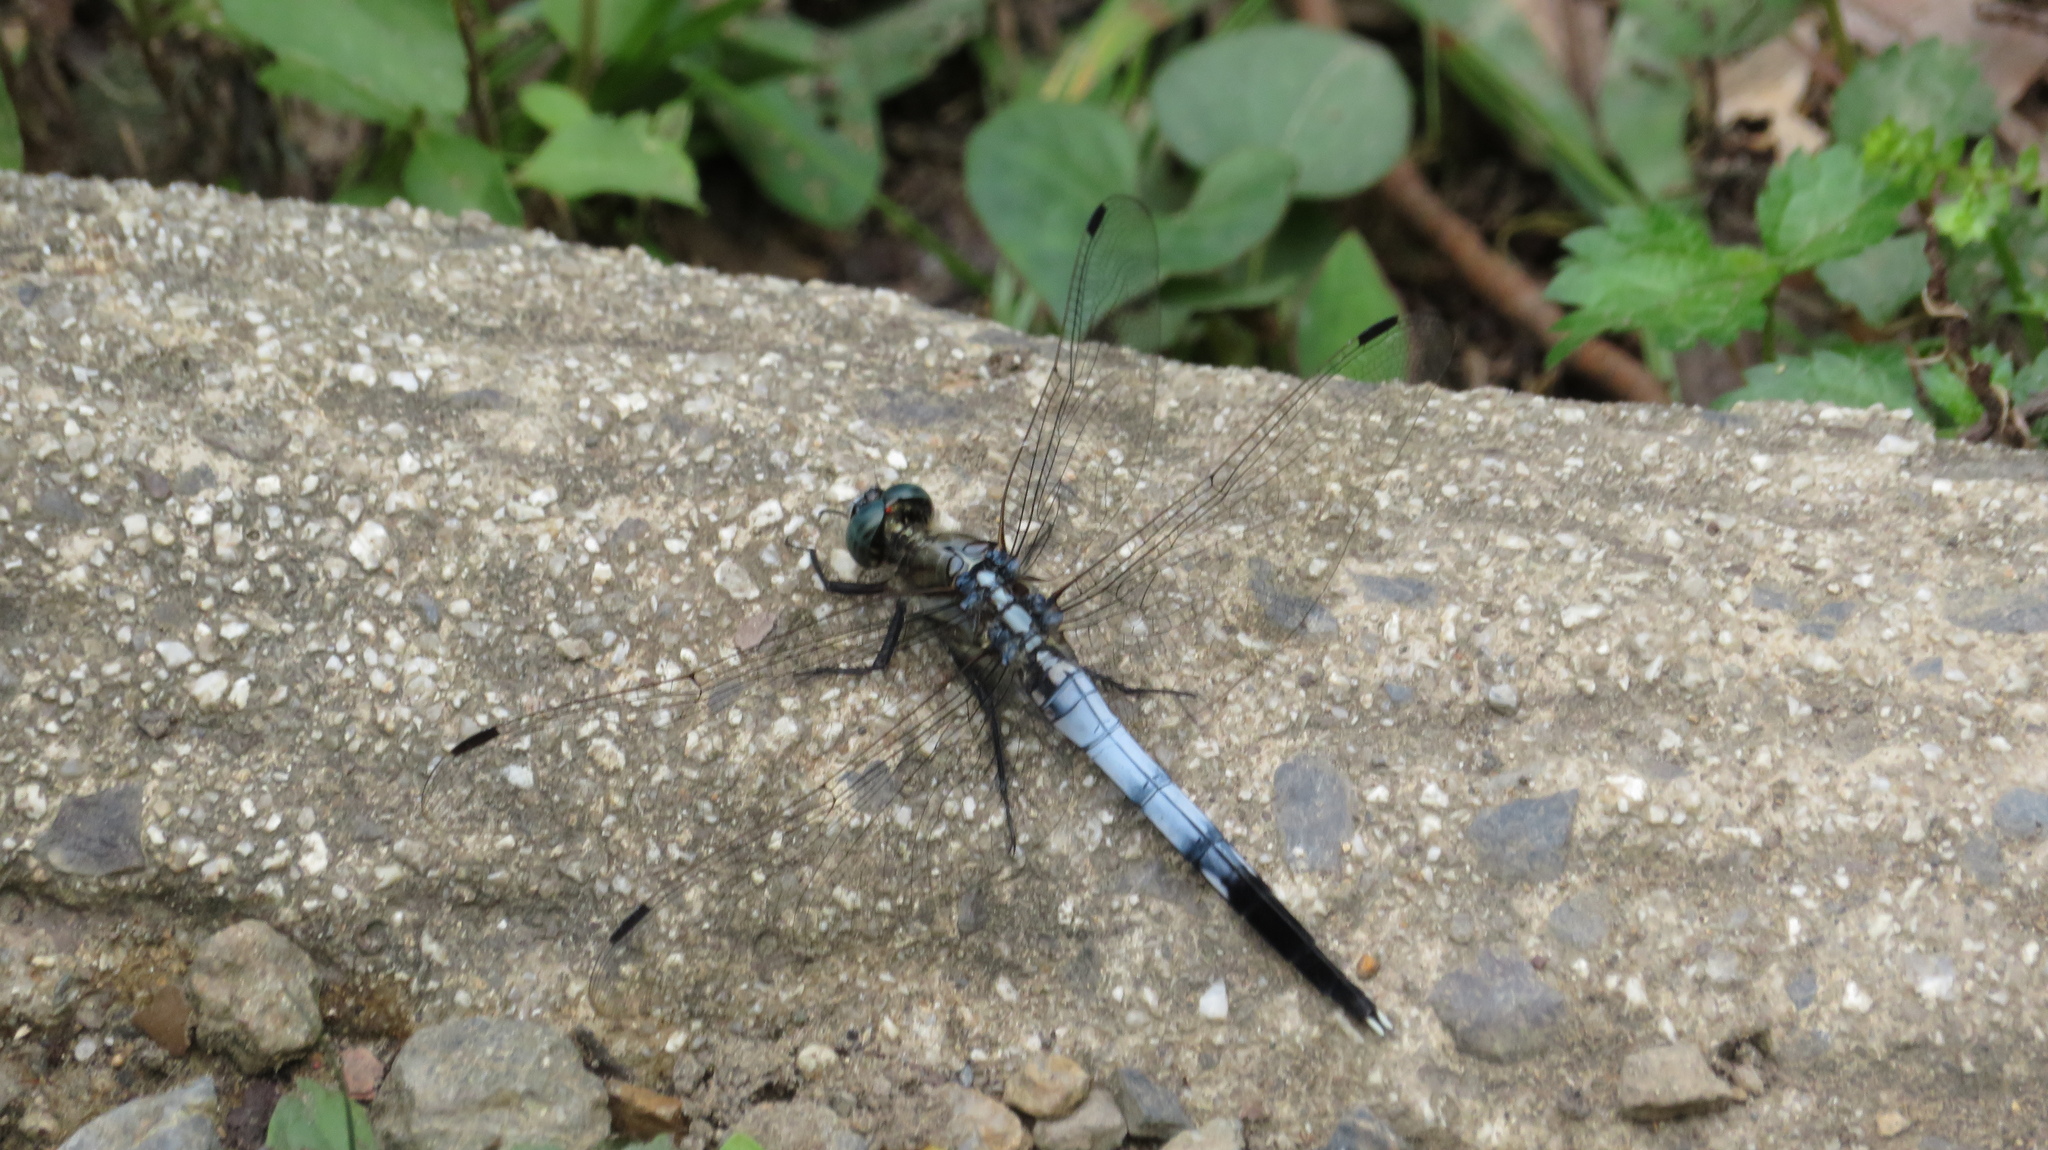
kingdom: Animalia
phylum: Arthropoda
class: Insecta
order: Odonata
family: Libellulidae
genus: Orthetrum
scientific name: Orthetrum albistylum
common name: White-tailed skimmer
